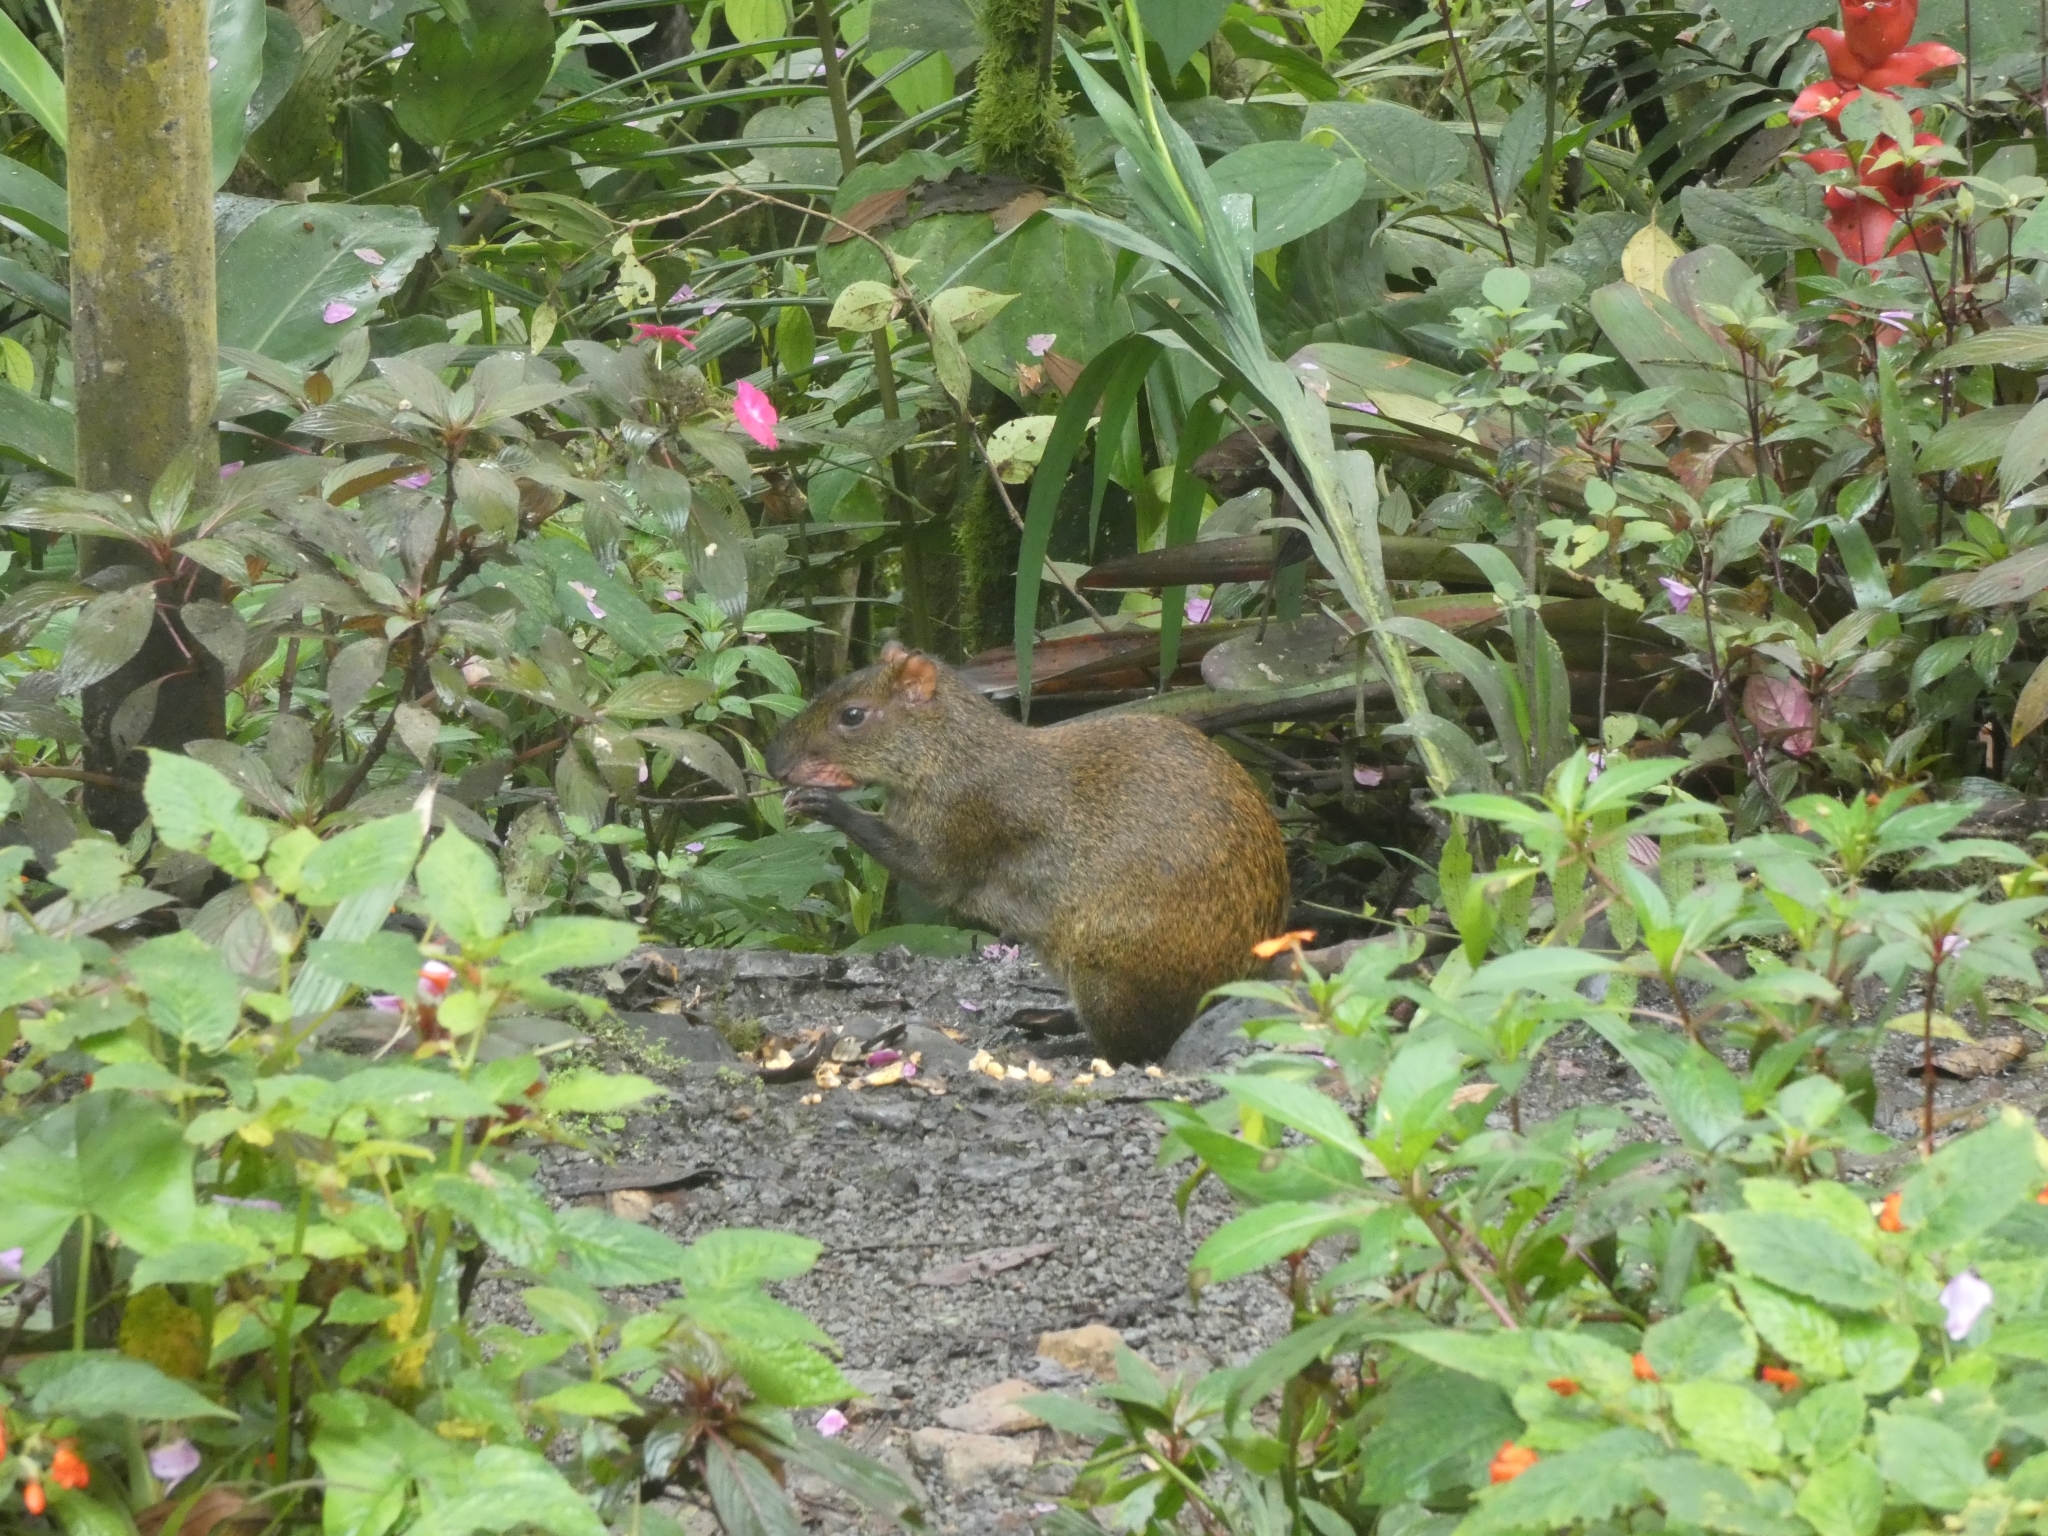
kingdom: Animalia
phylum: Chordata
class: Mammalia
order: Rodentia
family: Dasyproctidae
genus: Dasyprocta
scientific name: Dasyprocta punctata
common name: Central american agouti
